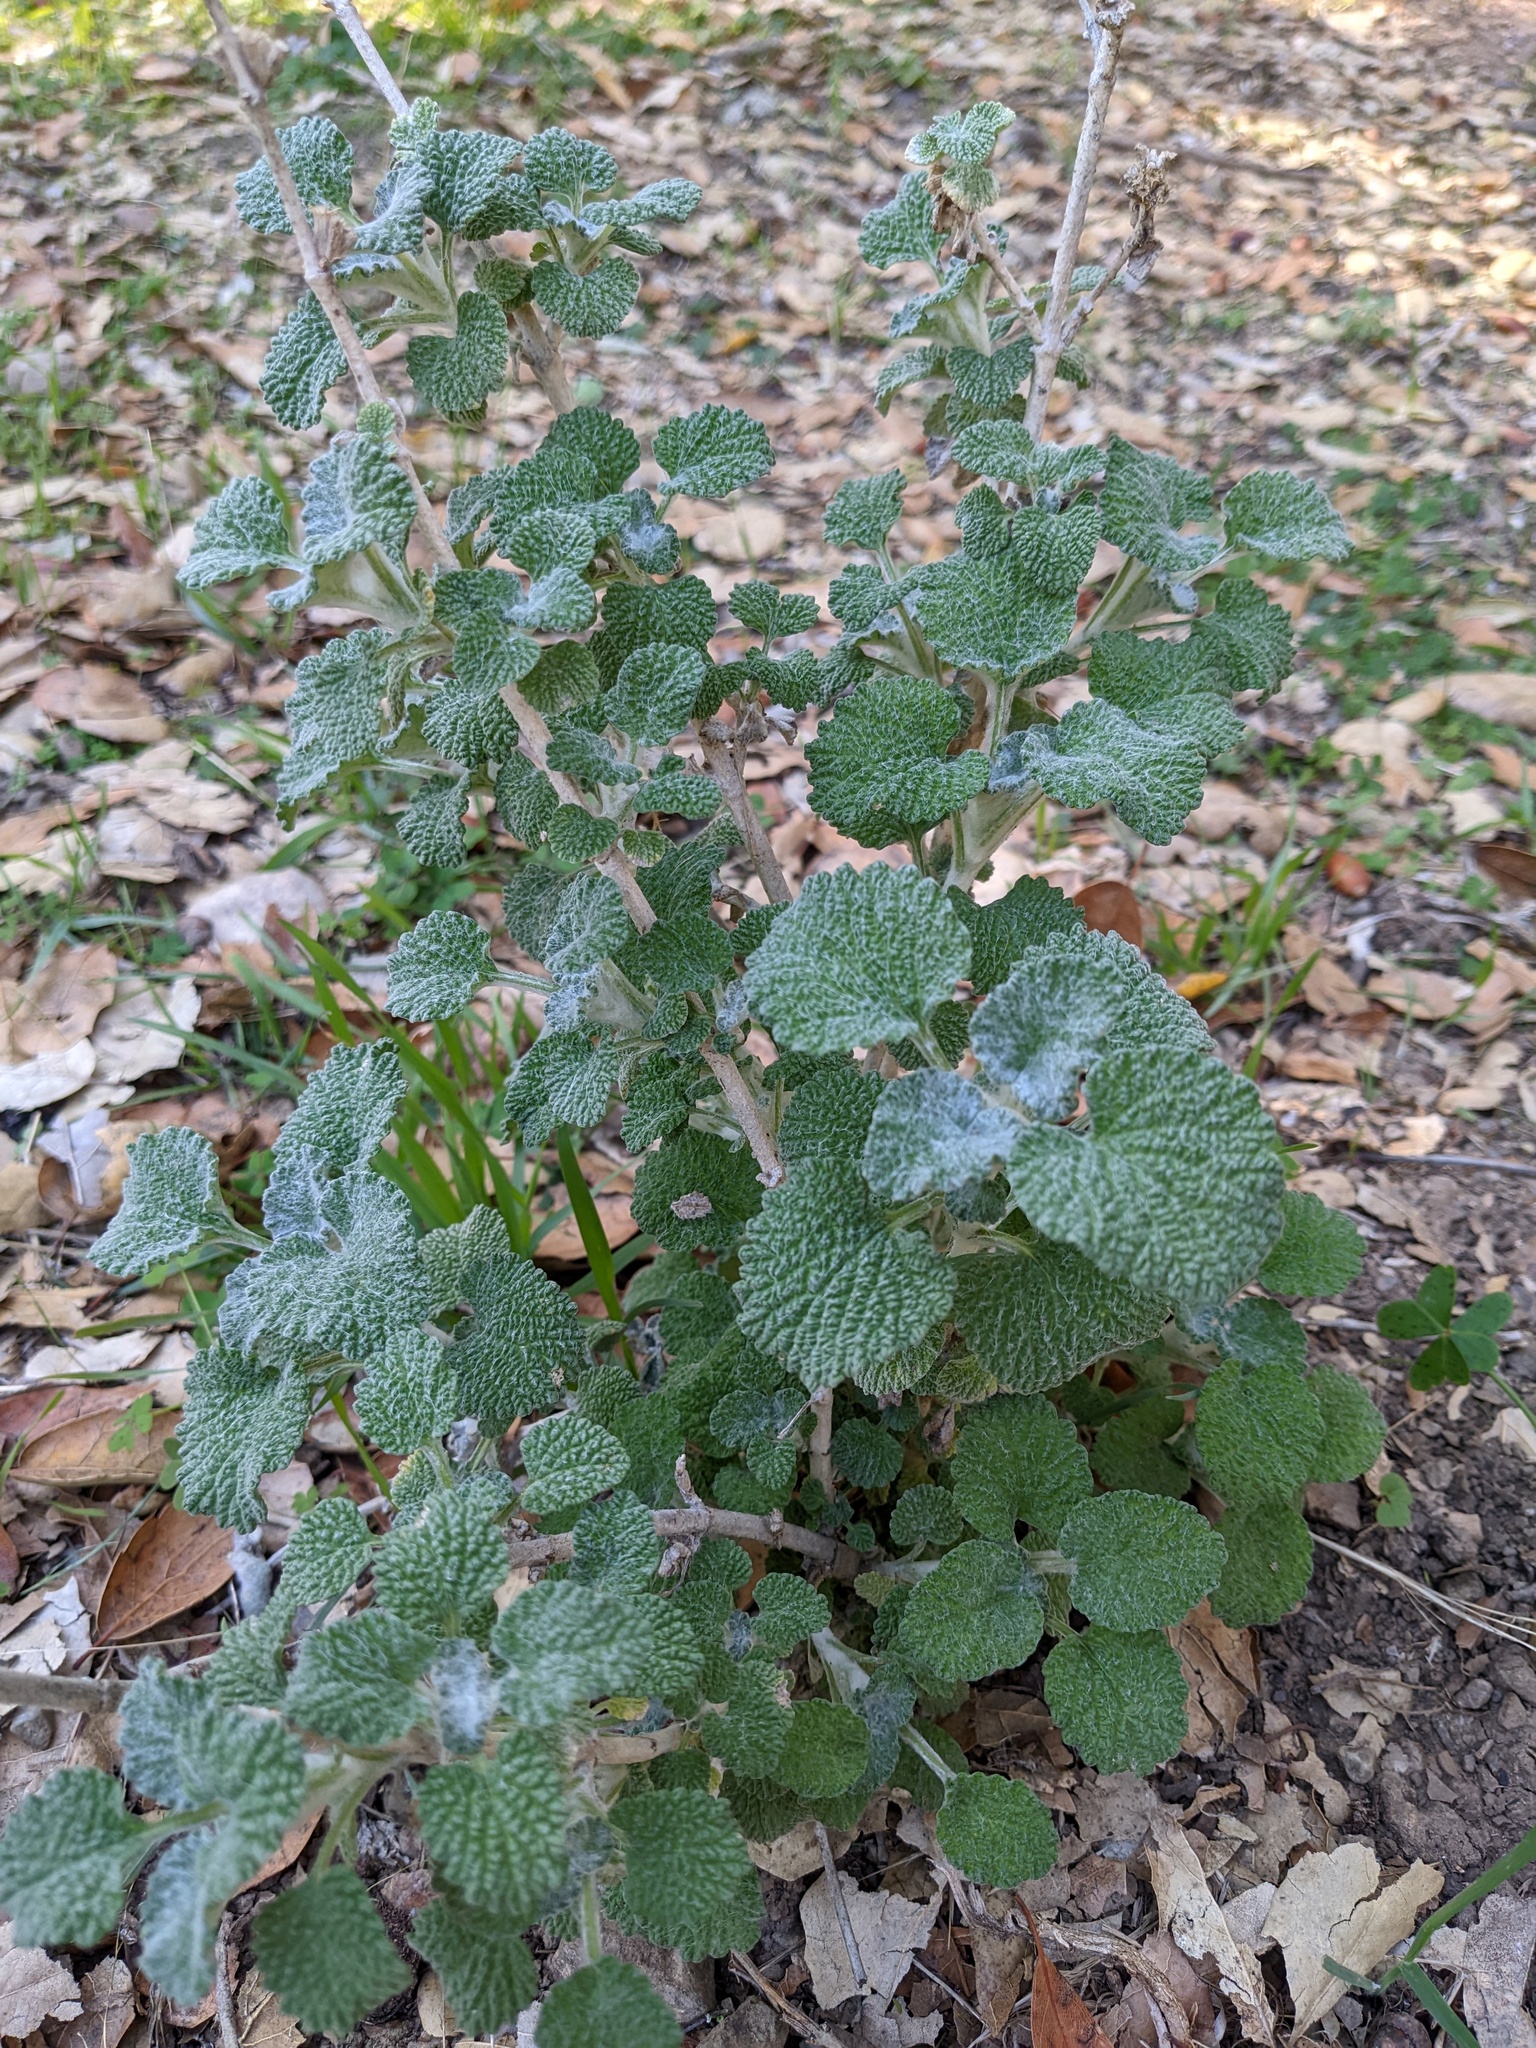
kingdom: Plantae
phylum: Tracheophyta
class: Magnoliopsida
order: Lamiales
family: Lamiaceae
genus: Marrubium
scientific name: Marrubium vulgare
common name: Horehound
